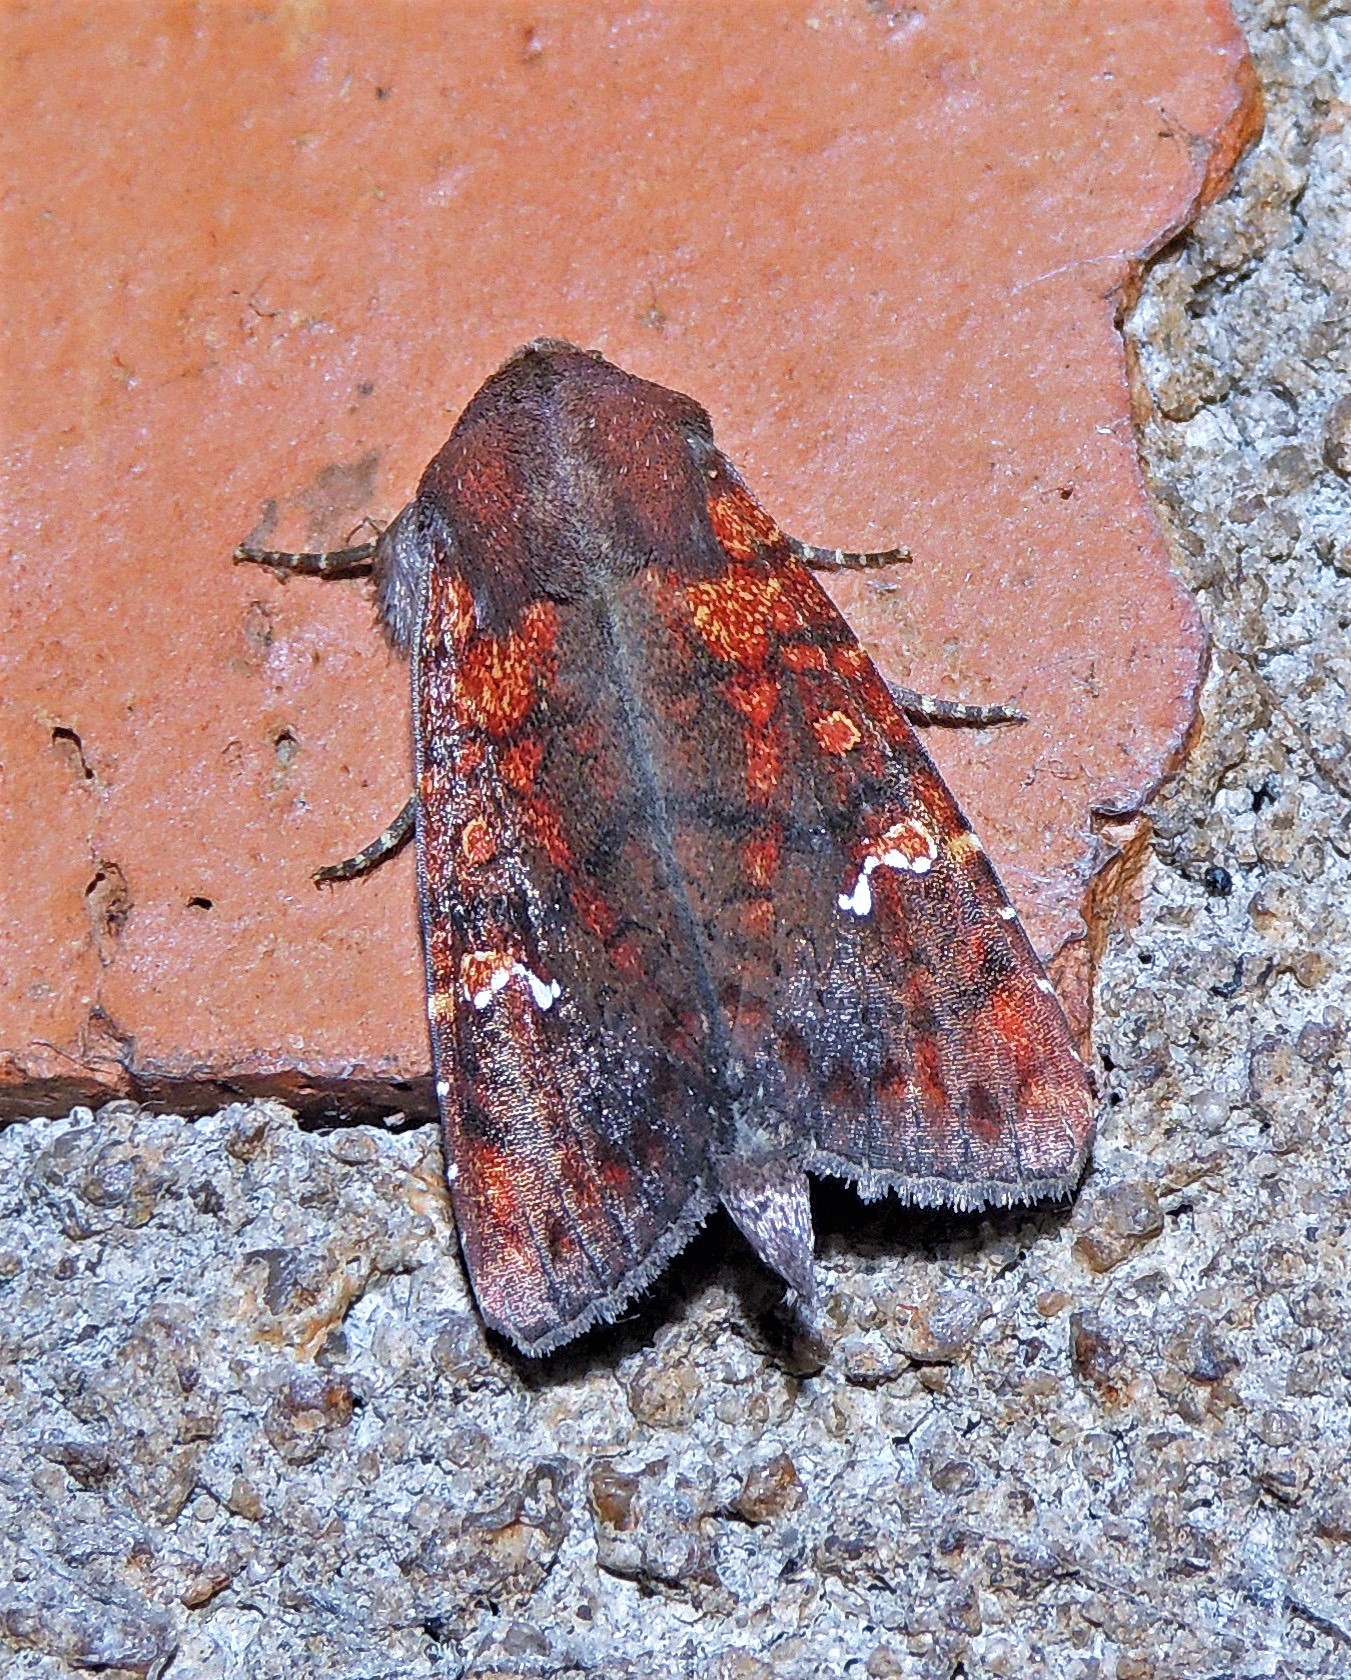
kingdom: Animalia
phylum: Arthropoda
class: Insecta
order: Lepidoptera
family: Noctuidae
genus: Eriopyga
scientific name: Eriopyga ditissima
